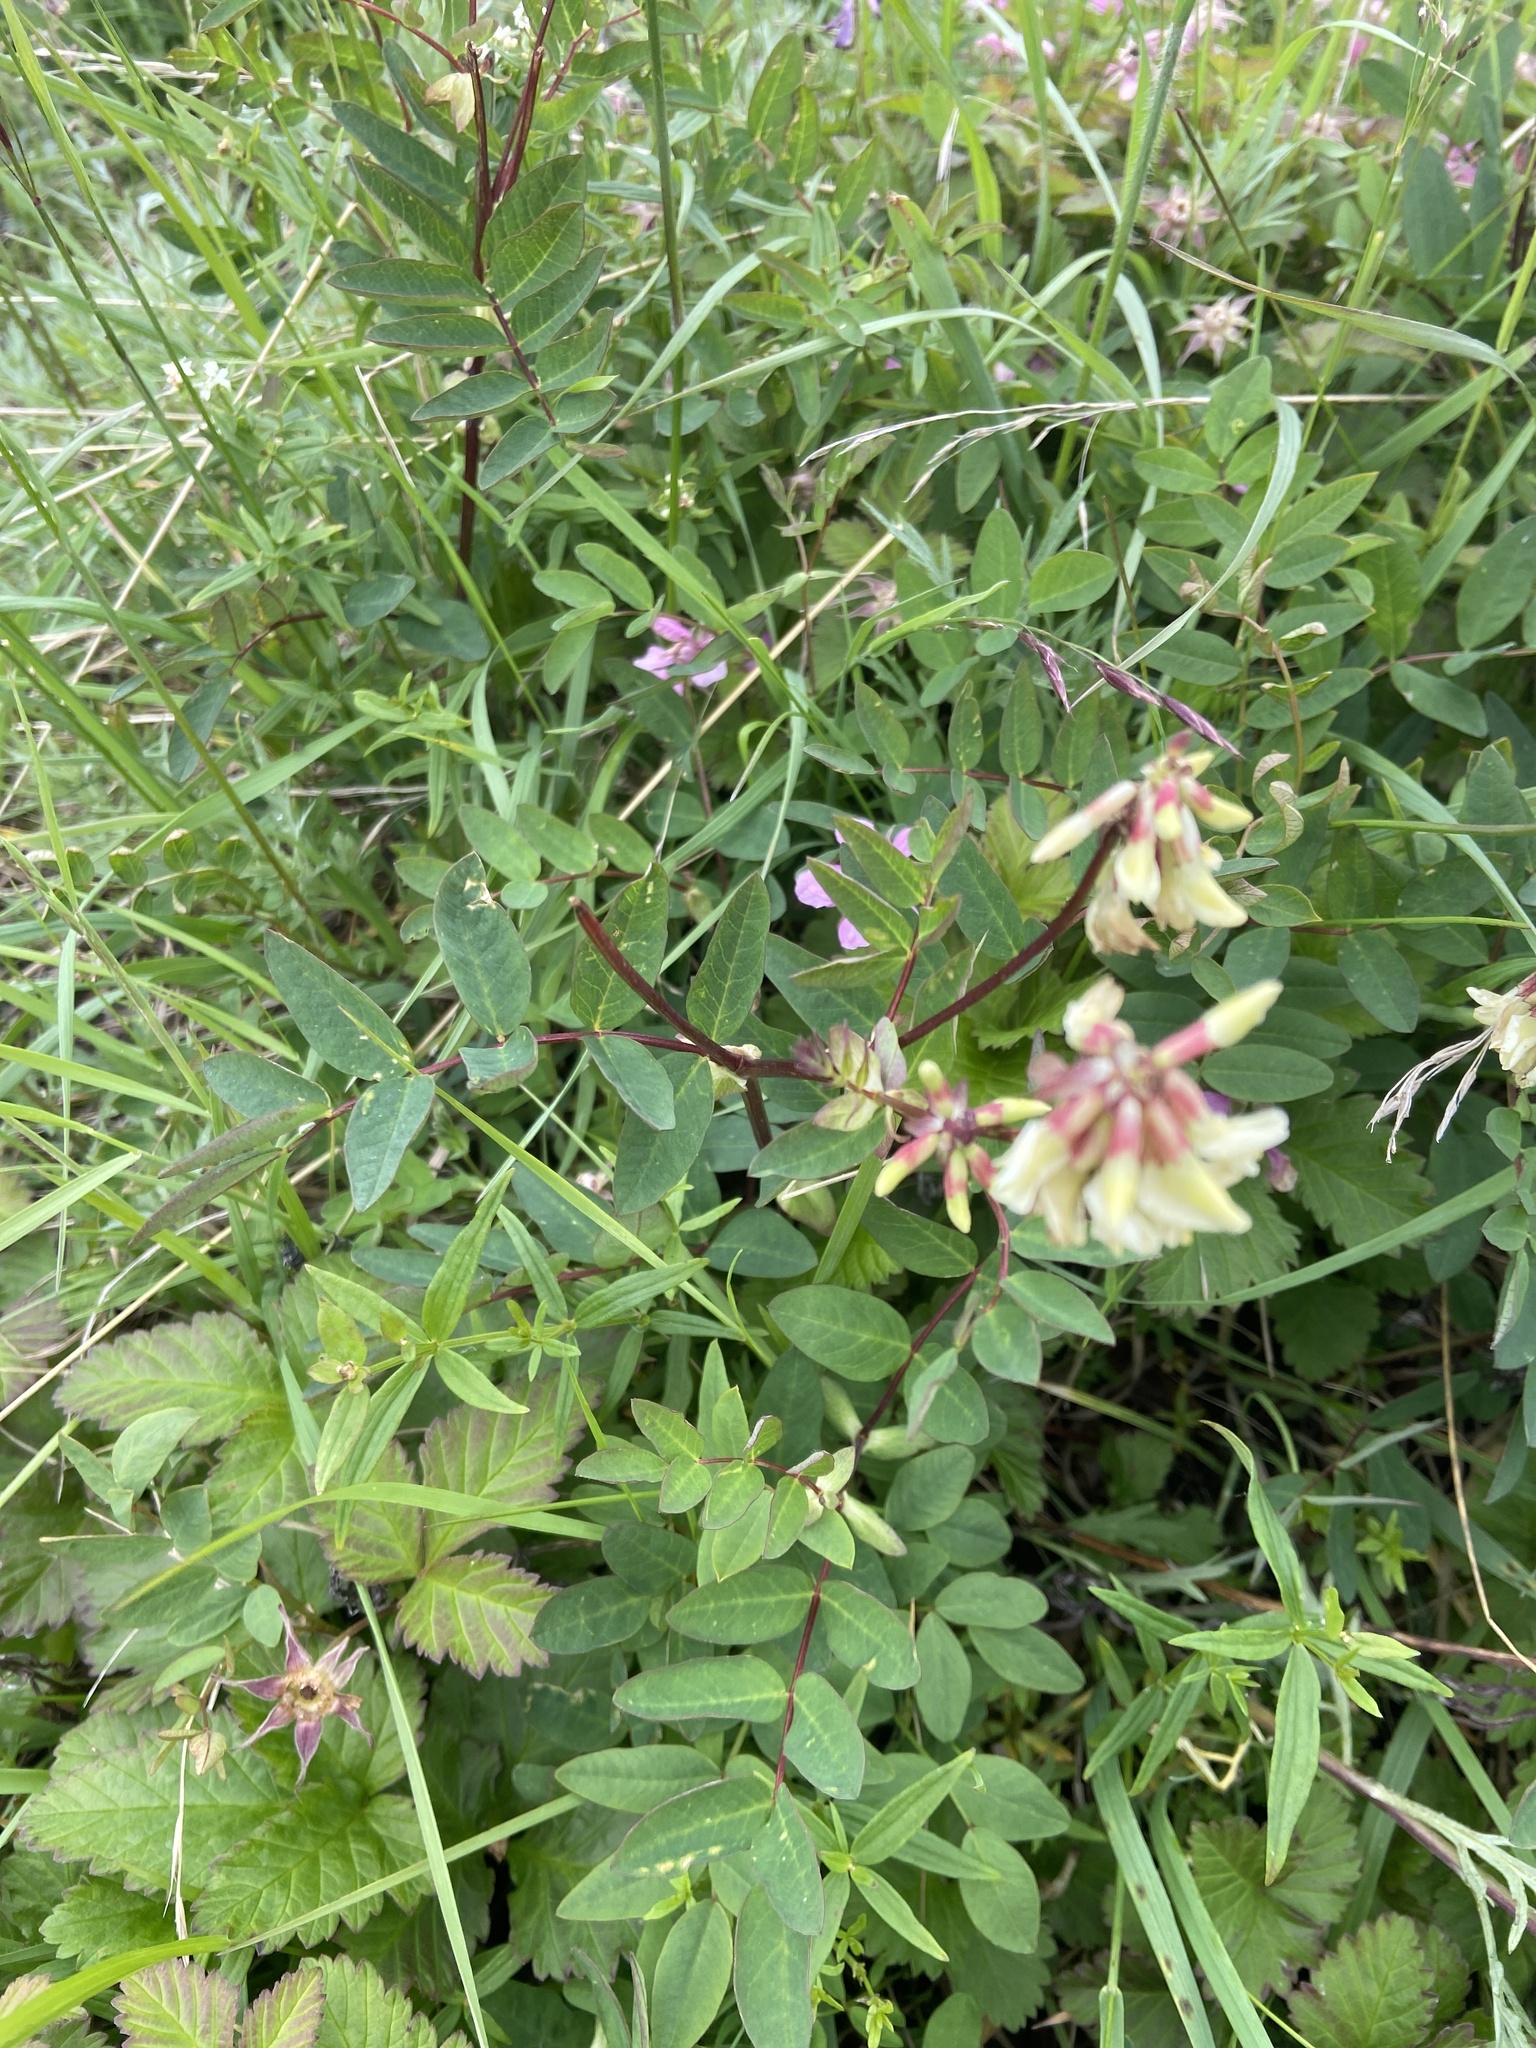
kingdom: Plantae
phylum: Tracheophyta
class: Magnoliopsida
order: Fabales
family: Fabaceae
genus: Astragalus
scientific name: Astragalus frigidus
